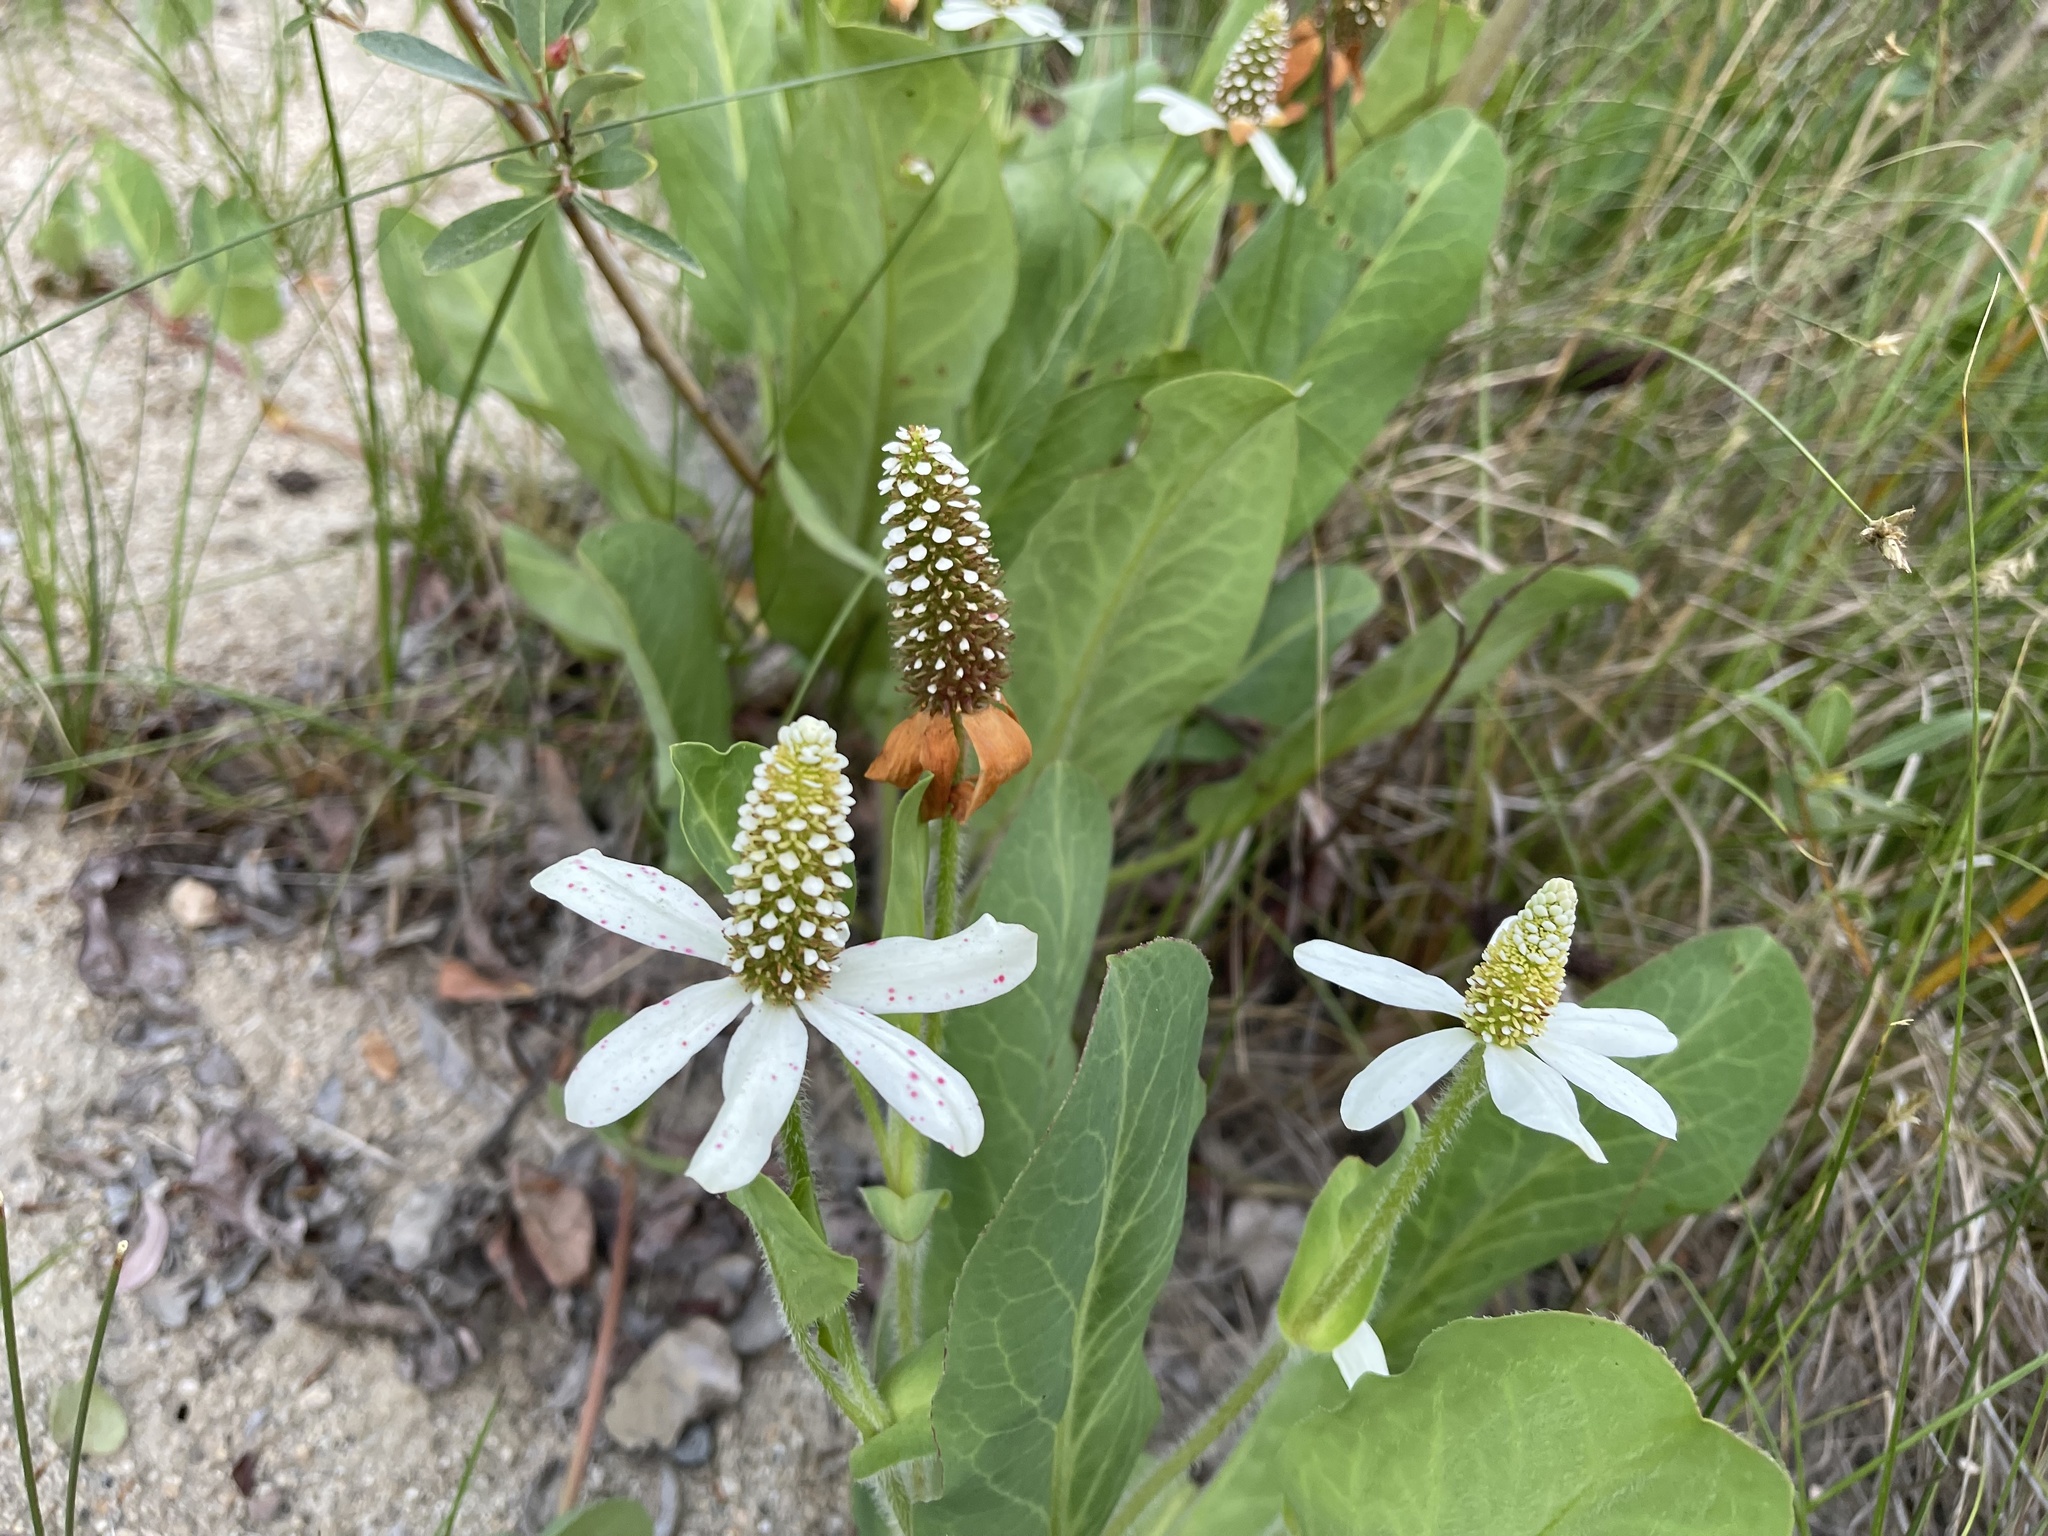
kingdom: Plantae
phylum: Tracheophyta
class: Magnoliopsida
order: Piperales
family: Saururaceae
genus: Anemopsis
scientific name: Anemopsis californica
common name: Apache-beads
